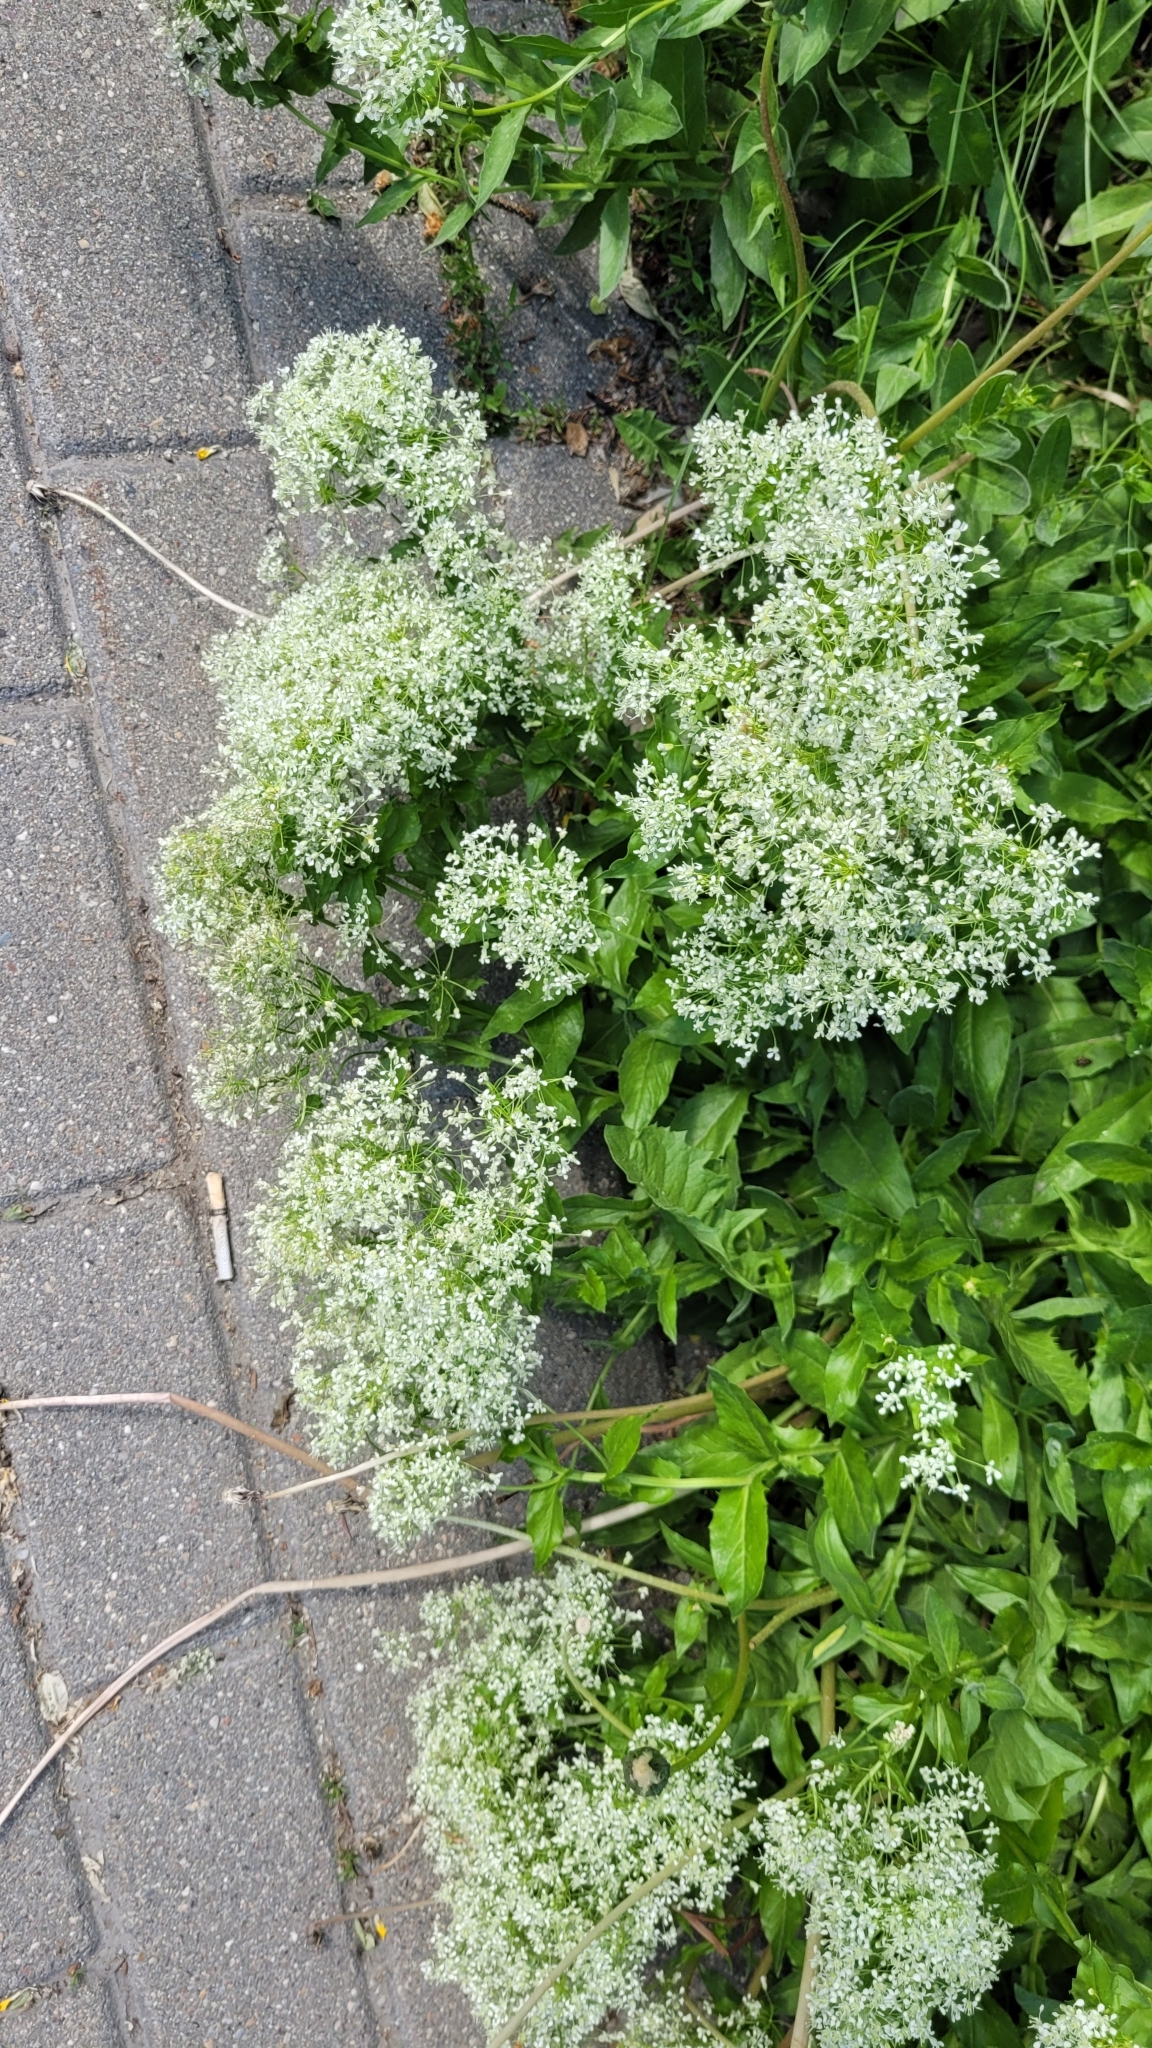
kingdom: Plantae
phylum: Tracheophyta
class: Magnoliopsida
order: Brassicales
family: Brassicaceae
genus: Lepidium
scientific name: Lepidium draba
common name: Hoary cress
